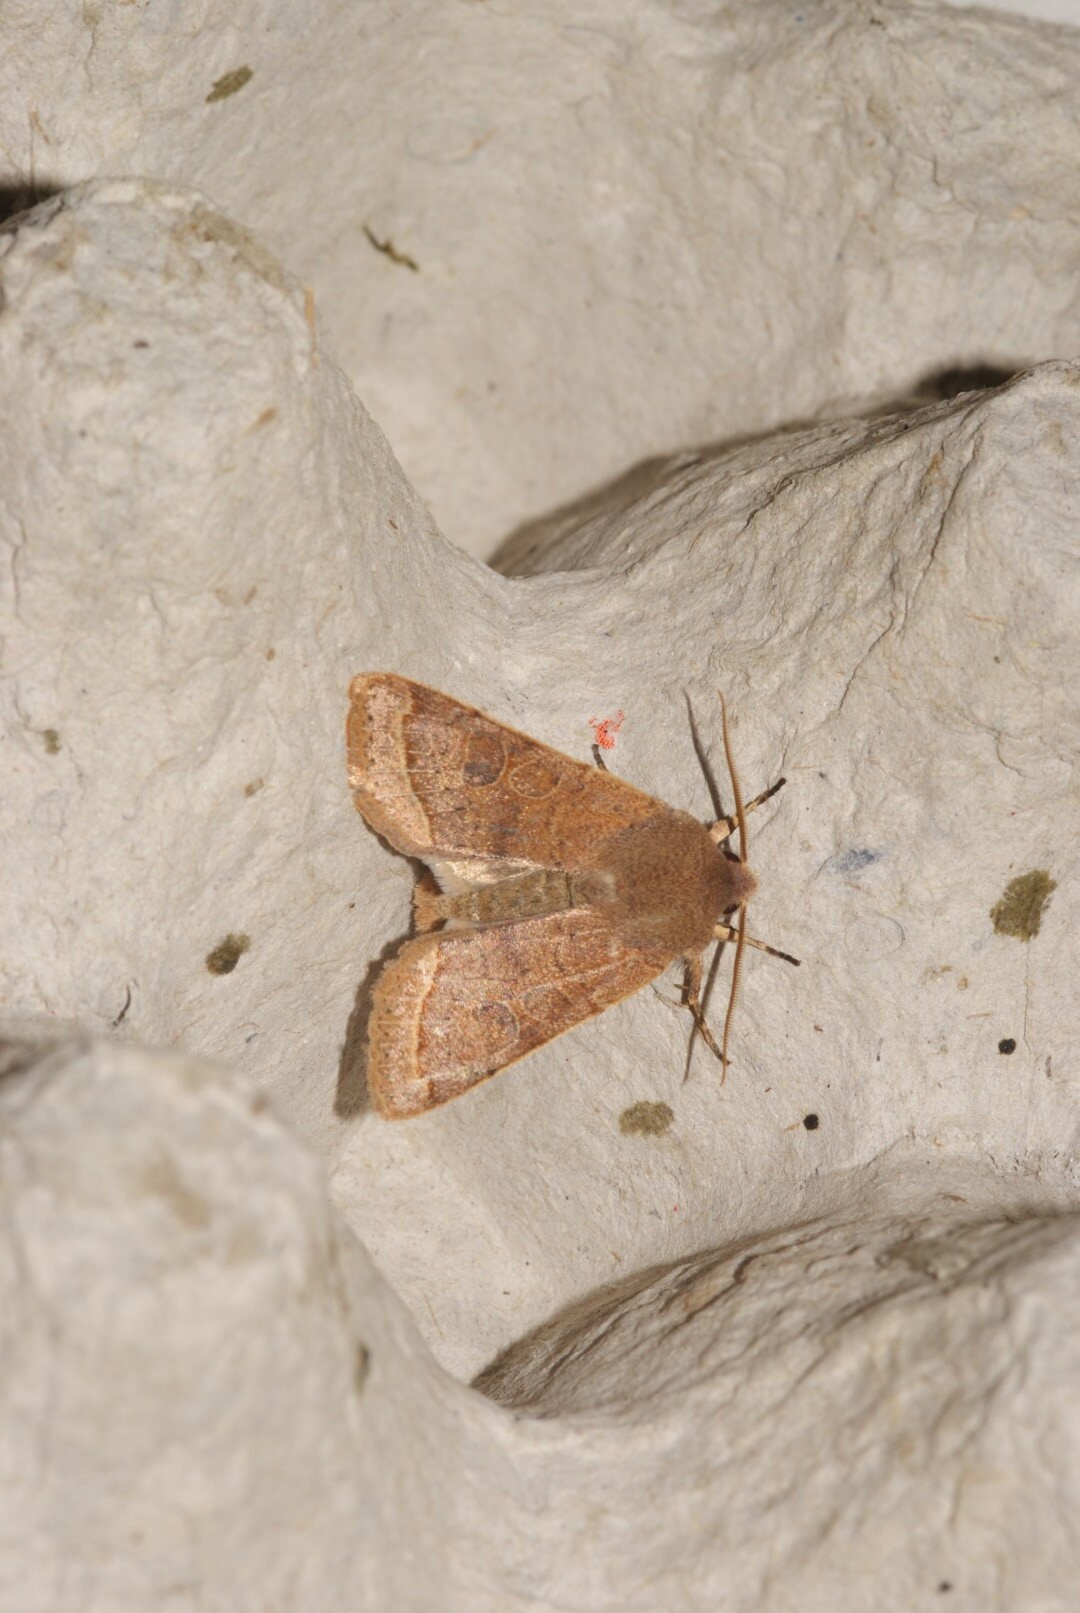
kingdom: Animalia
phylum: Arthropoda
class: Insecta
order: Lepidoptera
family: Noctuidae
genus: Orthosia
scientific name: Orthosia cerasi
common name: Common quaker
